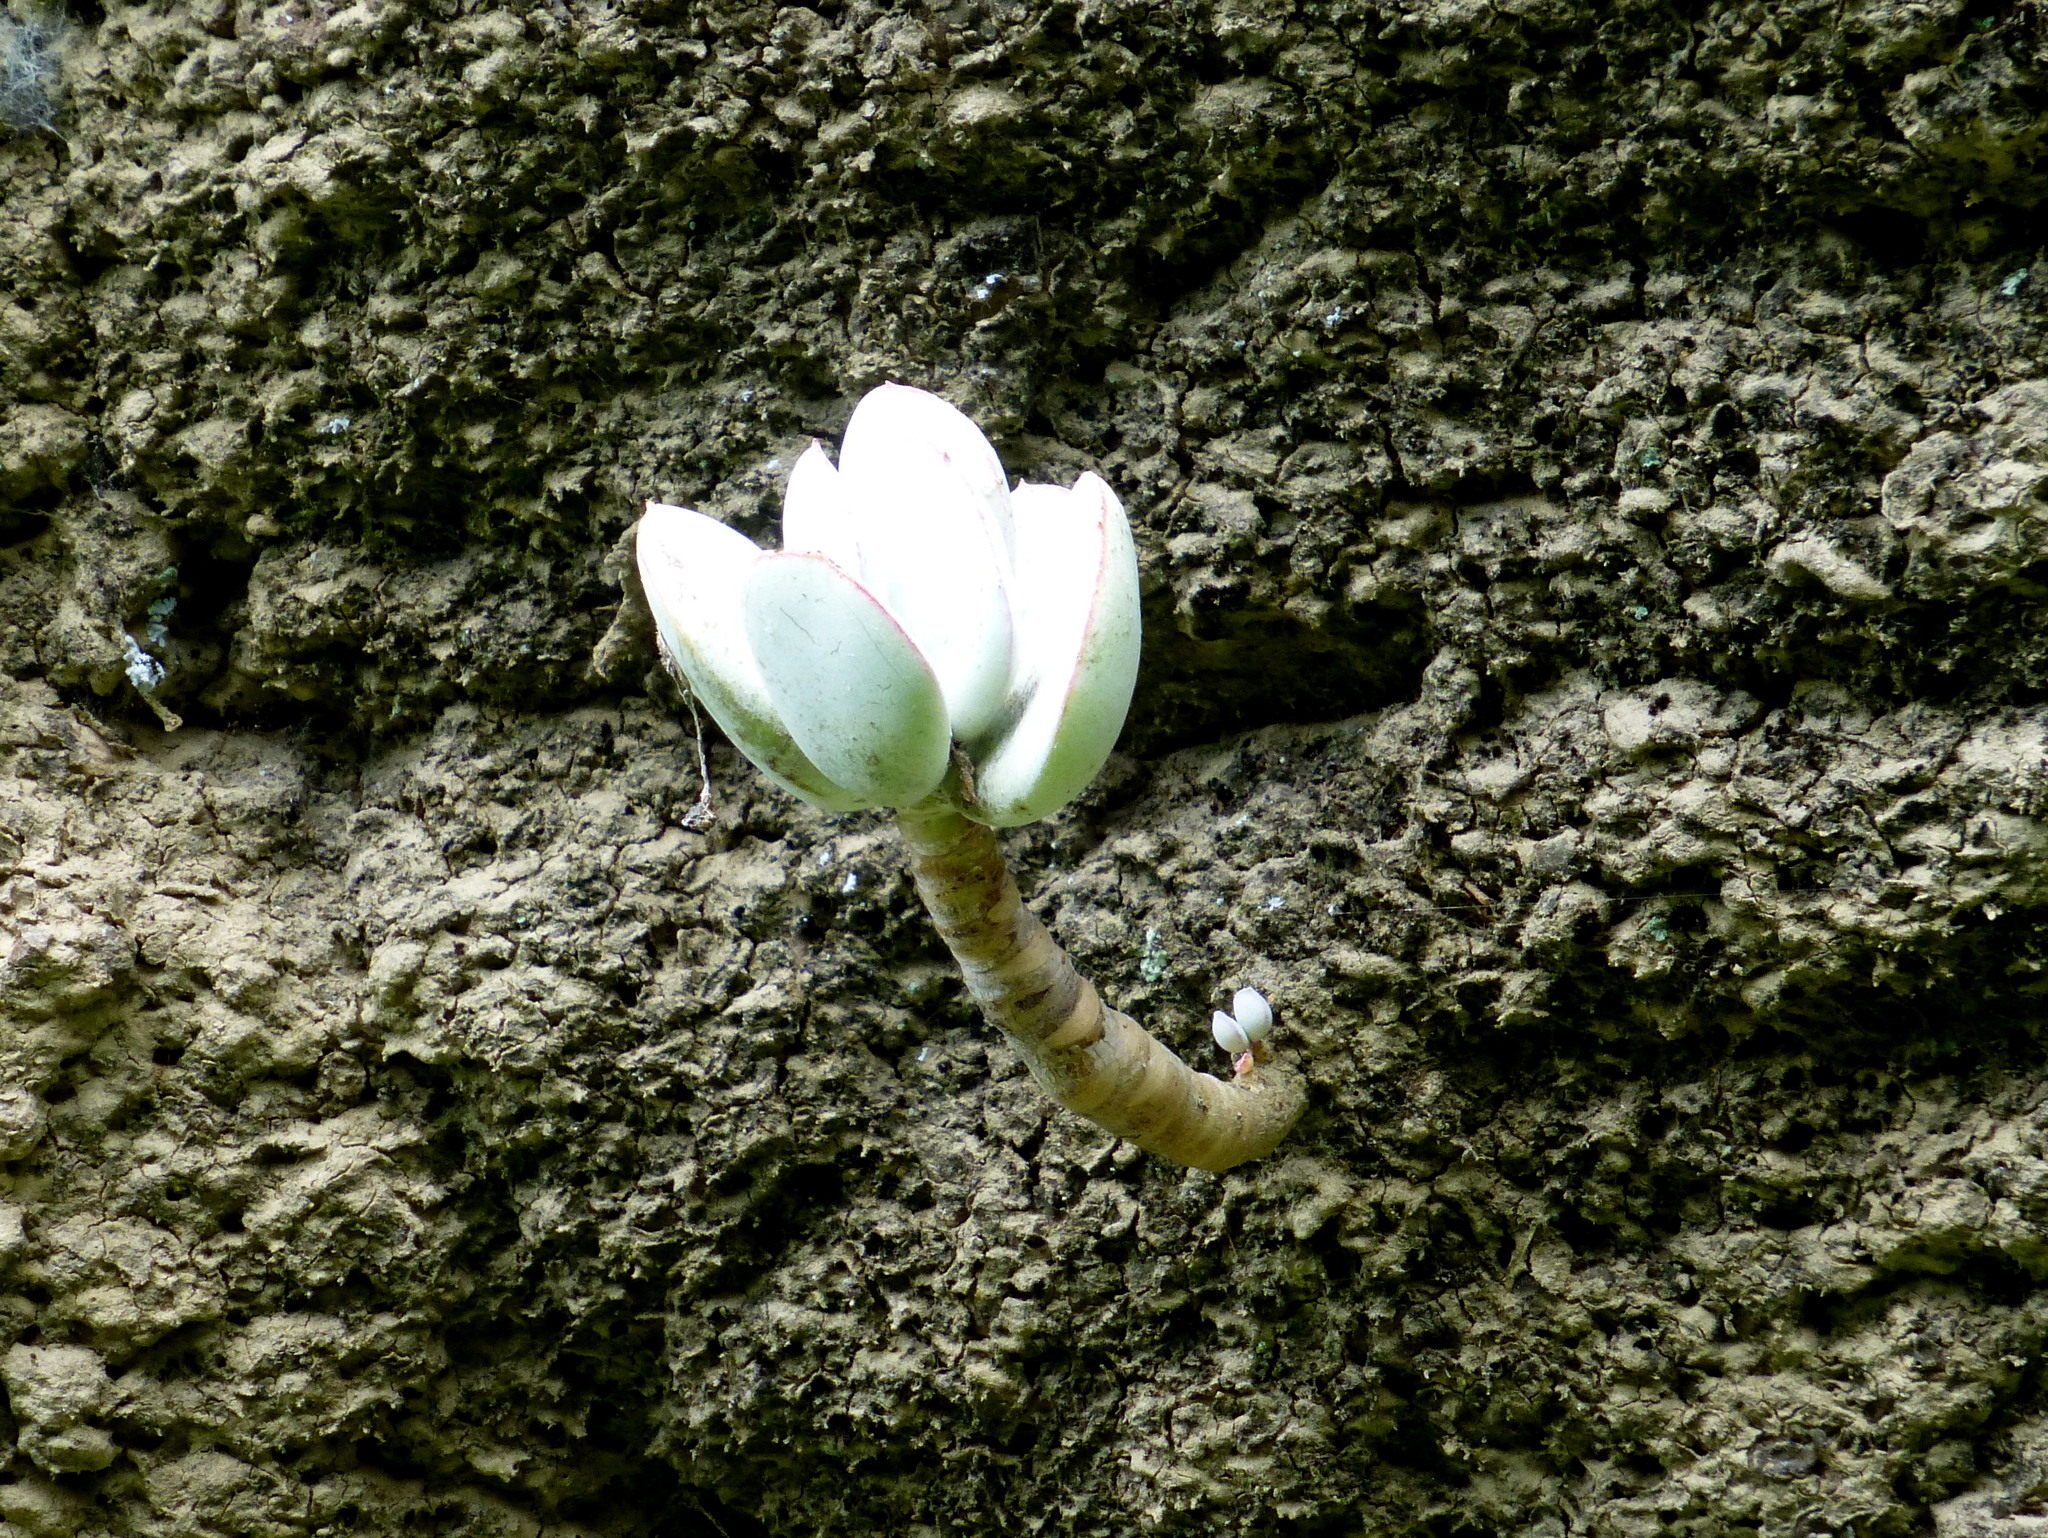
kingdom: Plantae
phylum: Tracheophyta
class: Magnoliopsida
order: Saxifragales
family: Crassulaceae
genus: Cotyledon
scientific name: Cotyledon orbiculata
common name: Pig's ear
